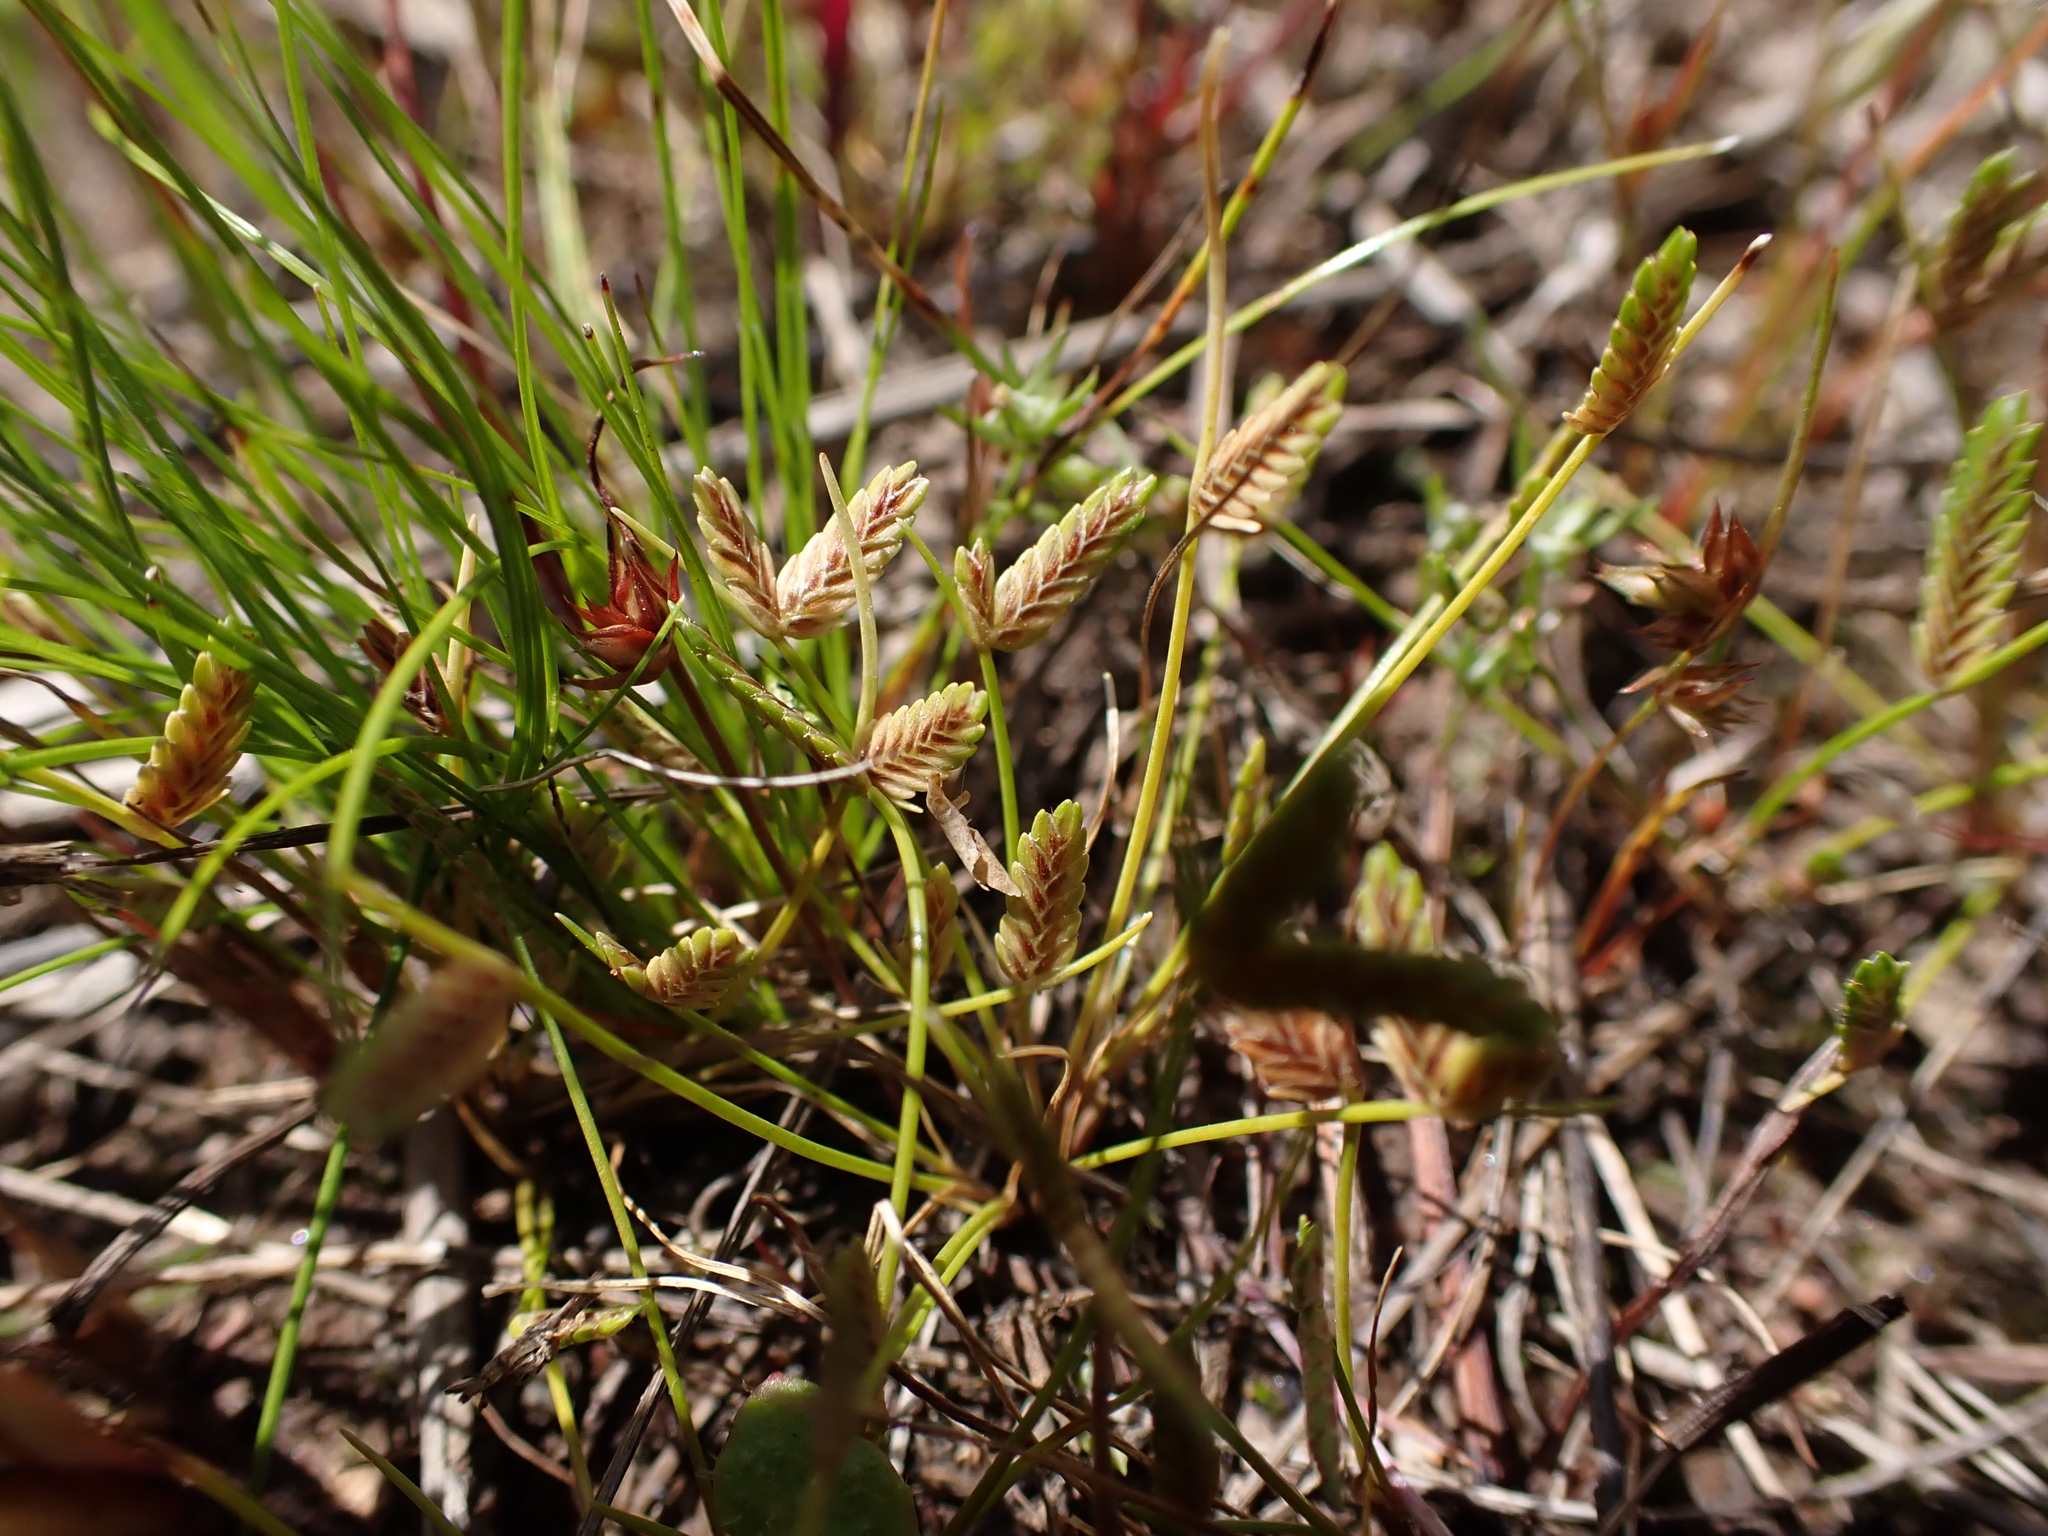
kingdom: Plantae
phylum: Tracheophyta
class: Liliopsida
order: Poales
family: Cyperaceae
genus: Isolepis
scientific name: Isolepis levynsiana
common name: Sedge
